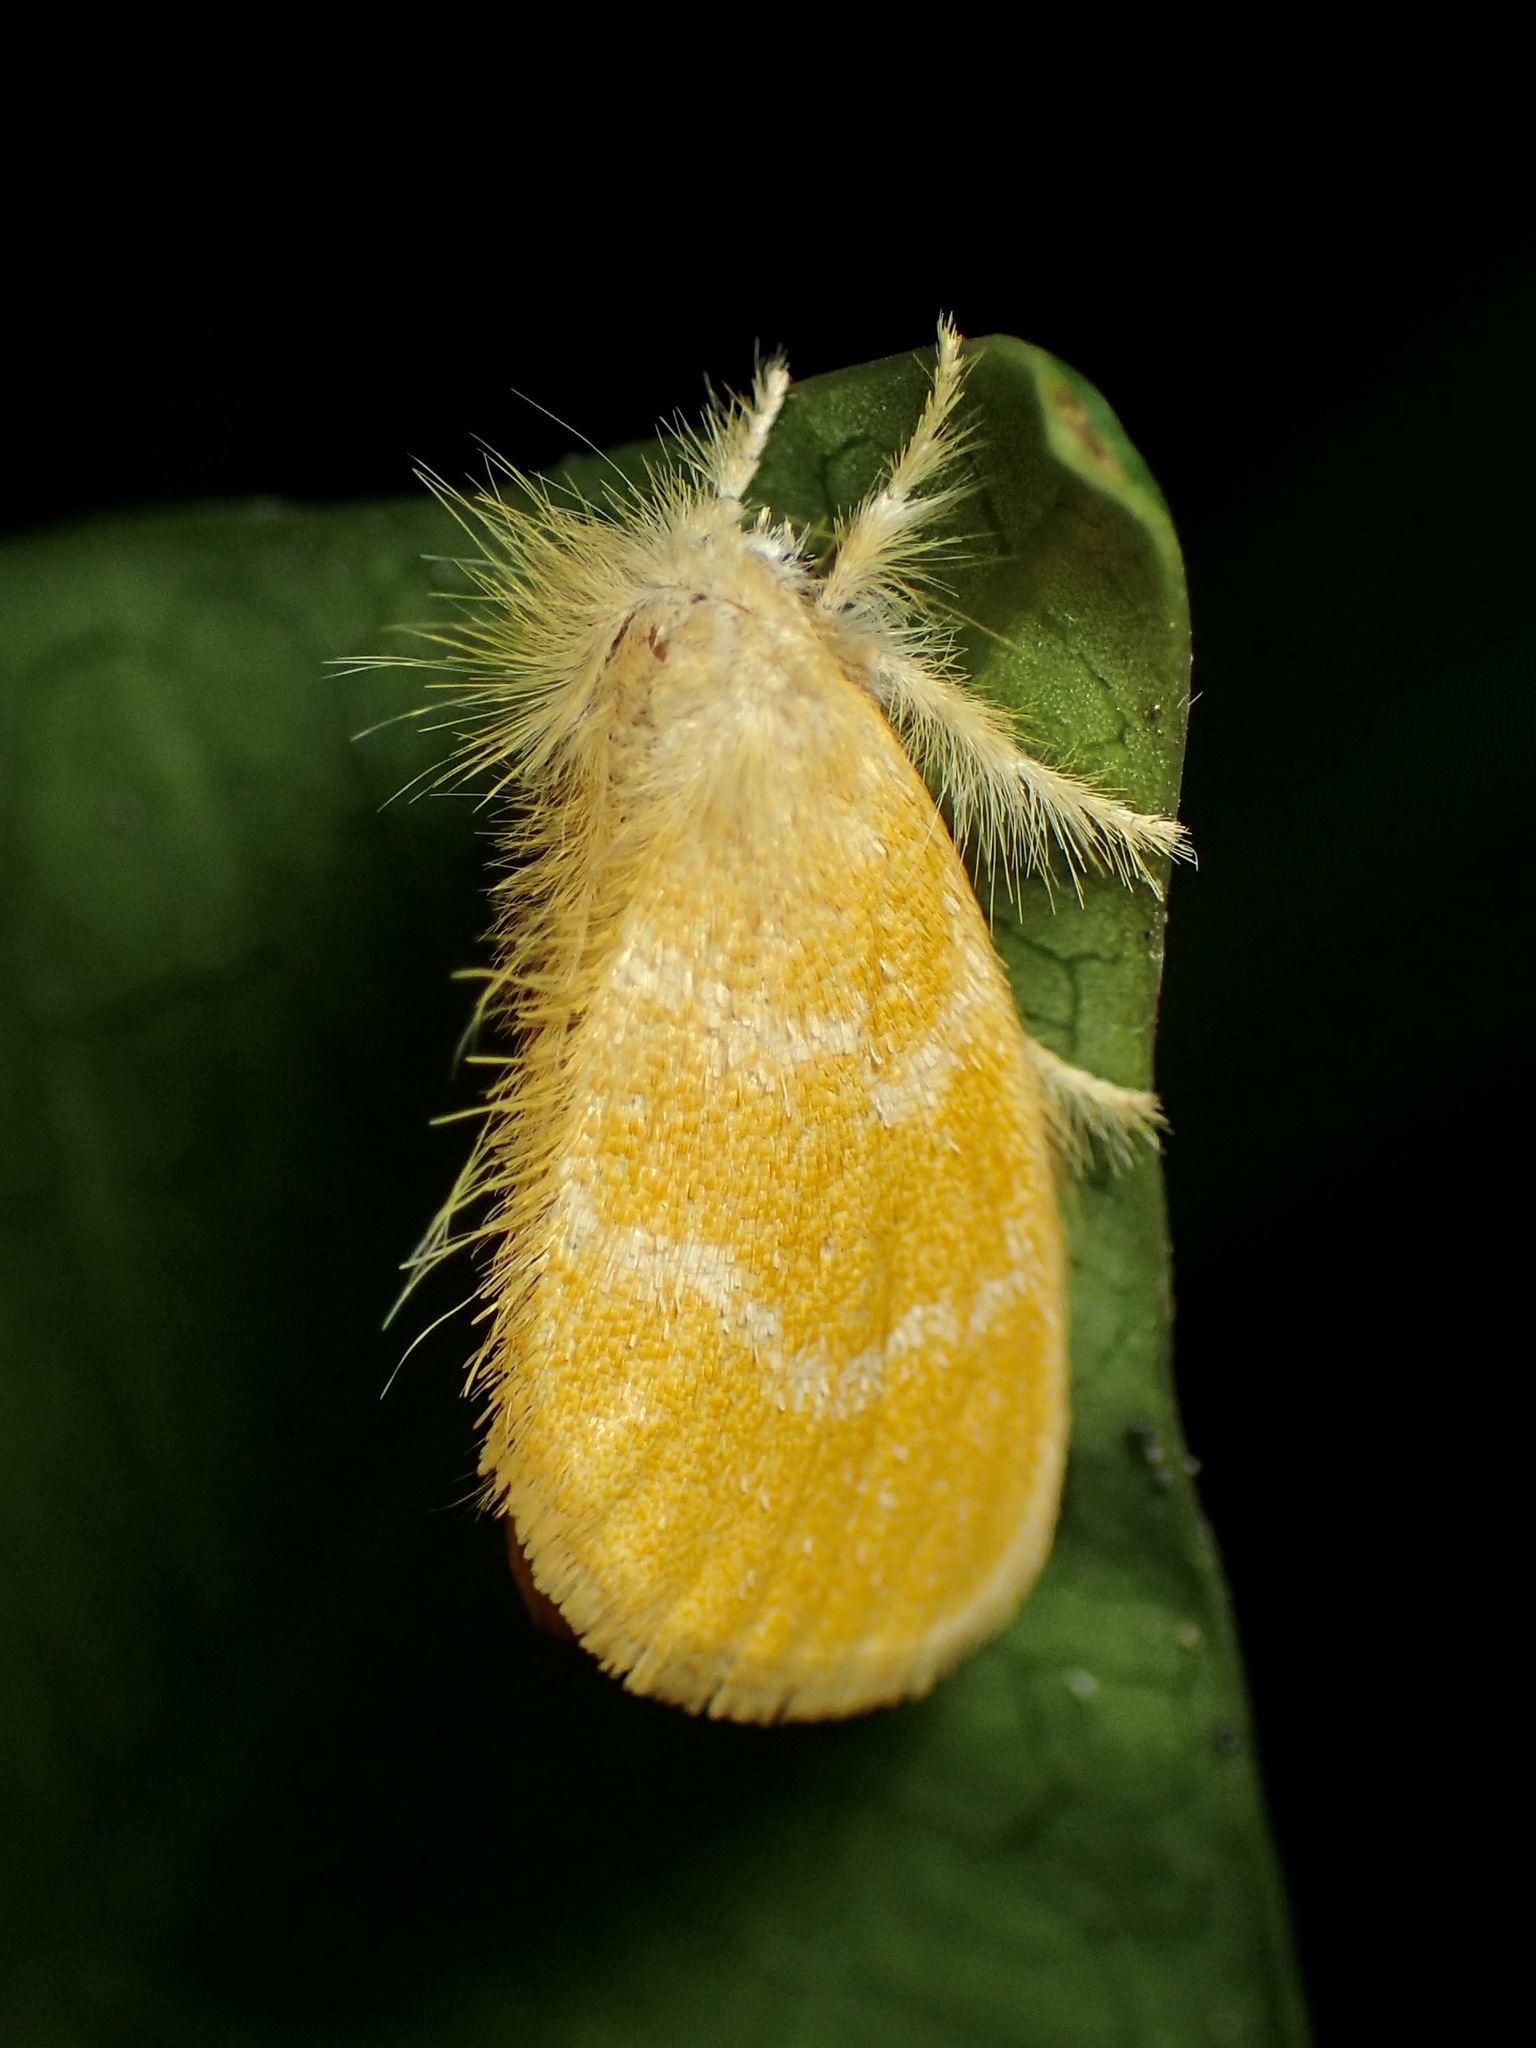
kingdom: Animalia
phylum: Arthropoda
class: Insecta
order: Lepidoptera
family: Erebidae
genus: Euproctis
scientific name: Euproctis lutea
